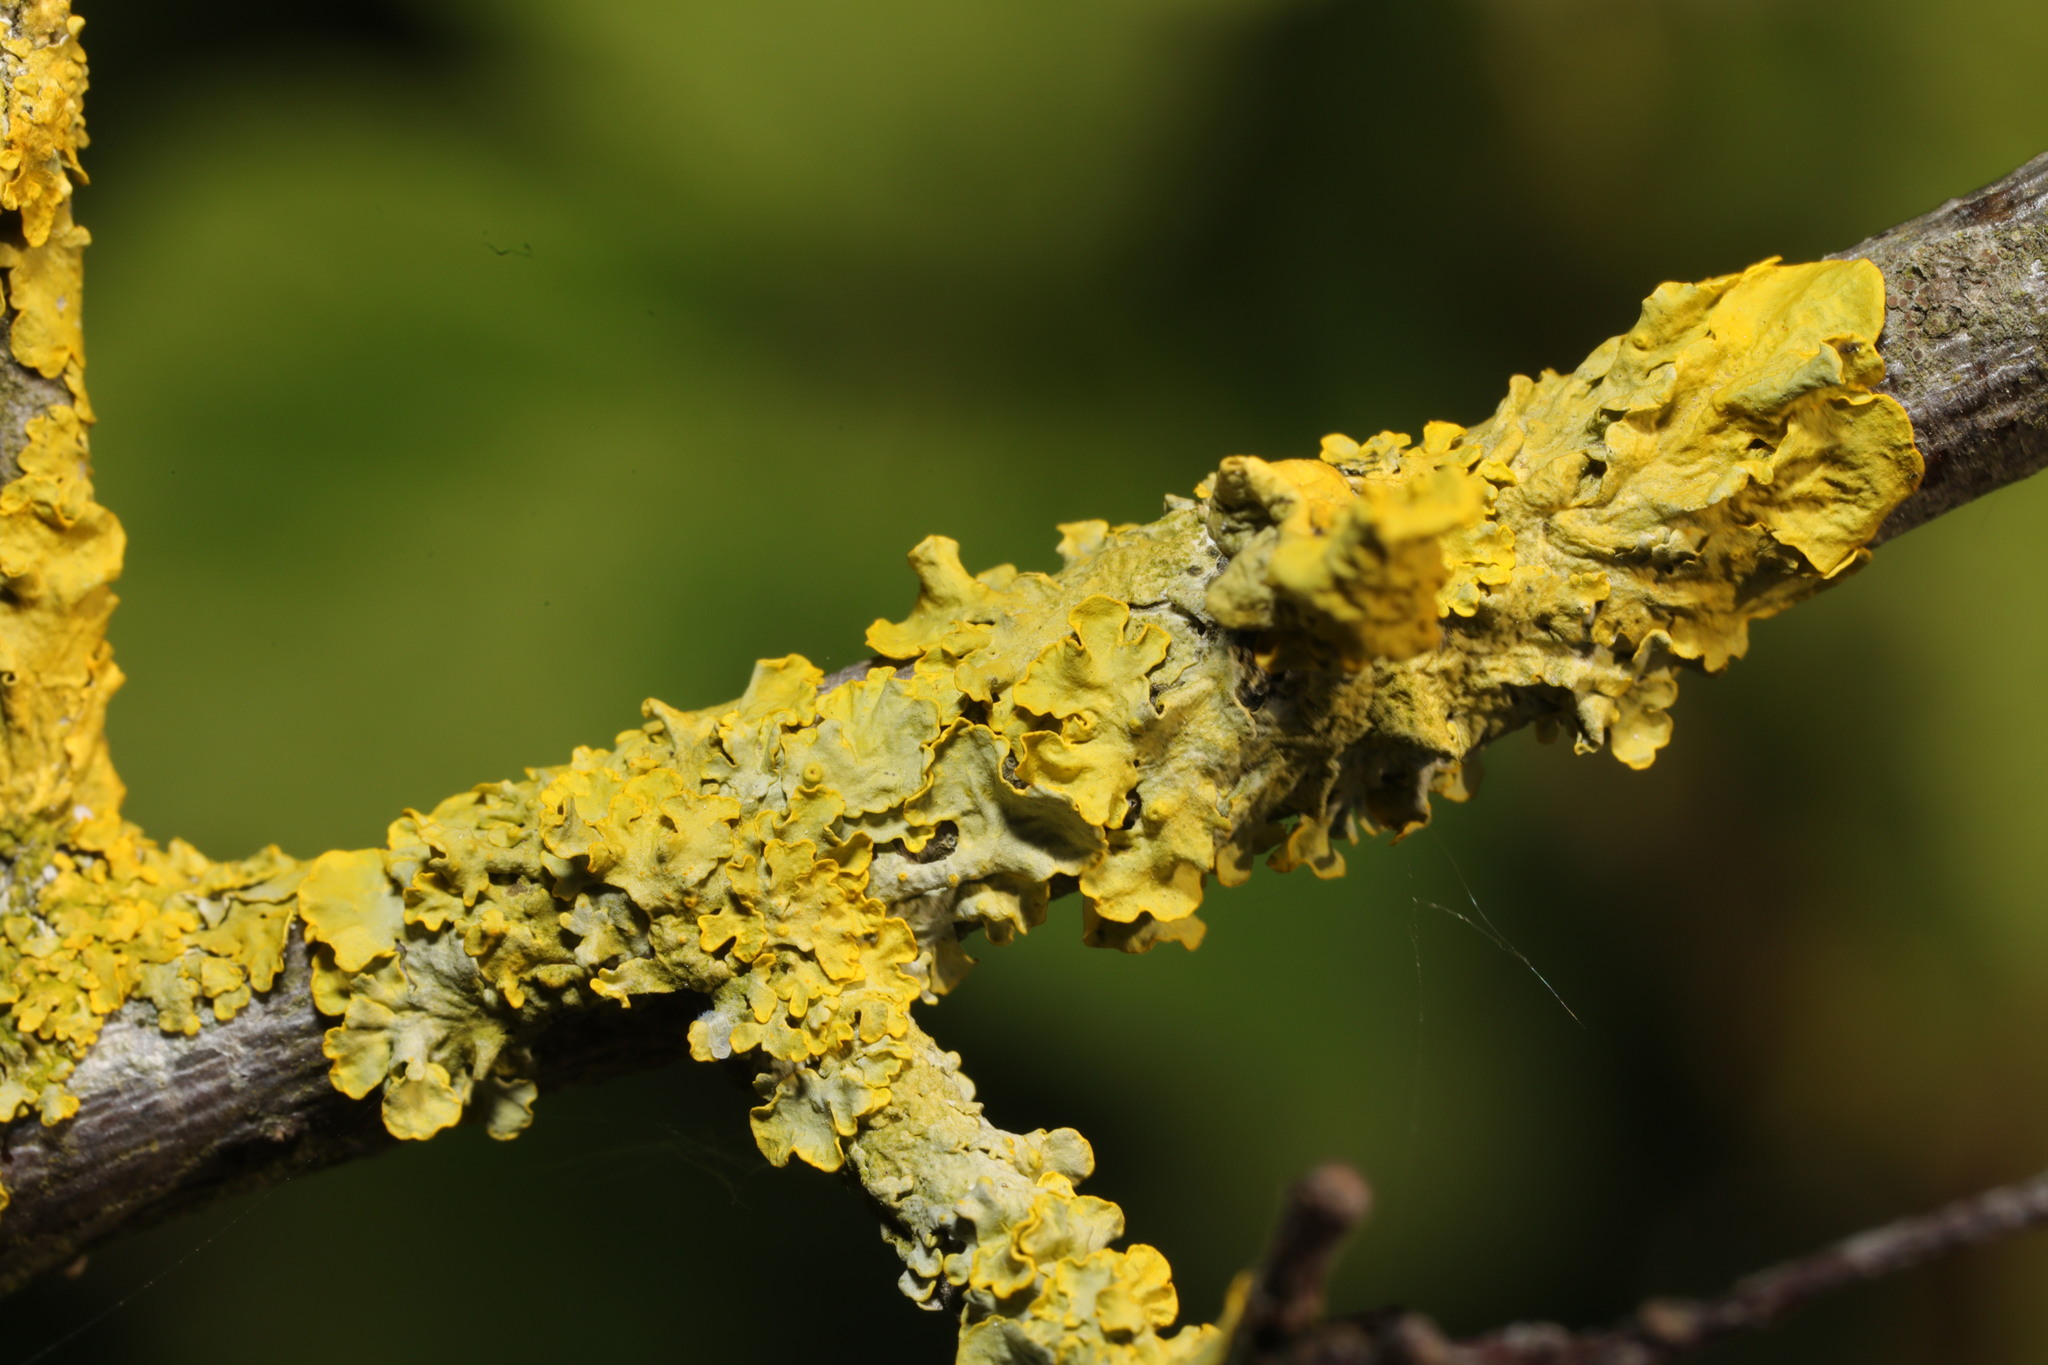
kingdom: Fungi
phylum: Ascomycota
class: Lecanoromycetes
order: Teloschistales
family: Teloschistaceae
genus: Xanthoria
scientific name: Xanthoria parietina
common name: Common orange lichen
